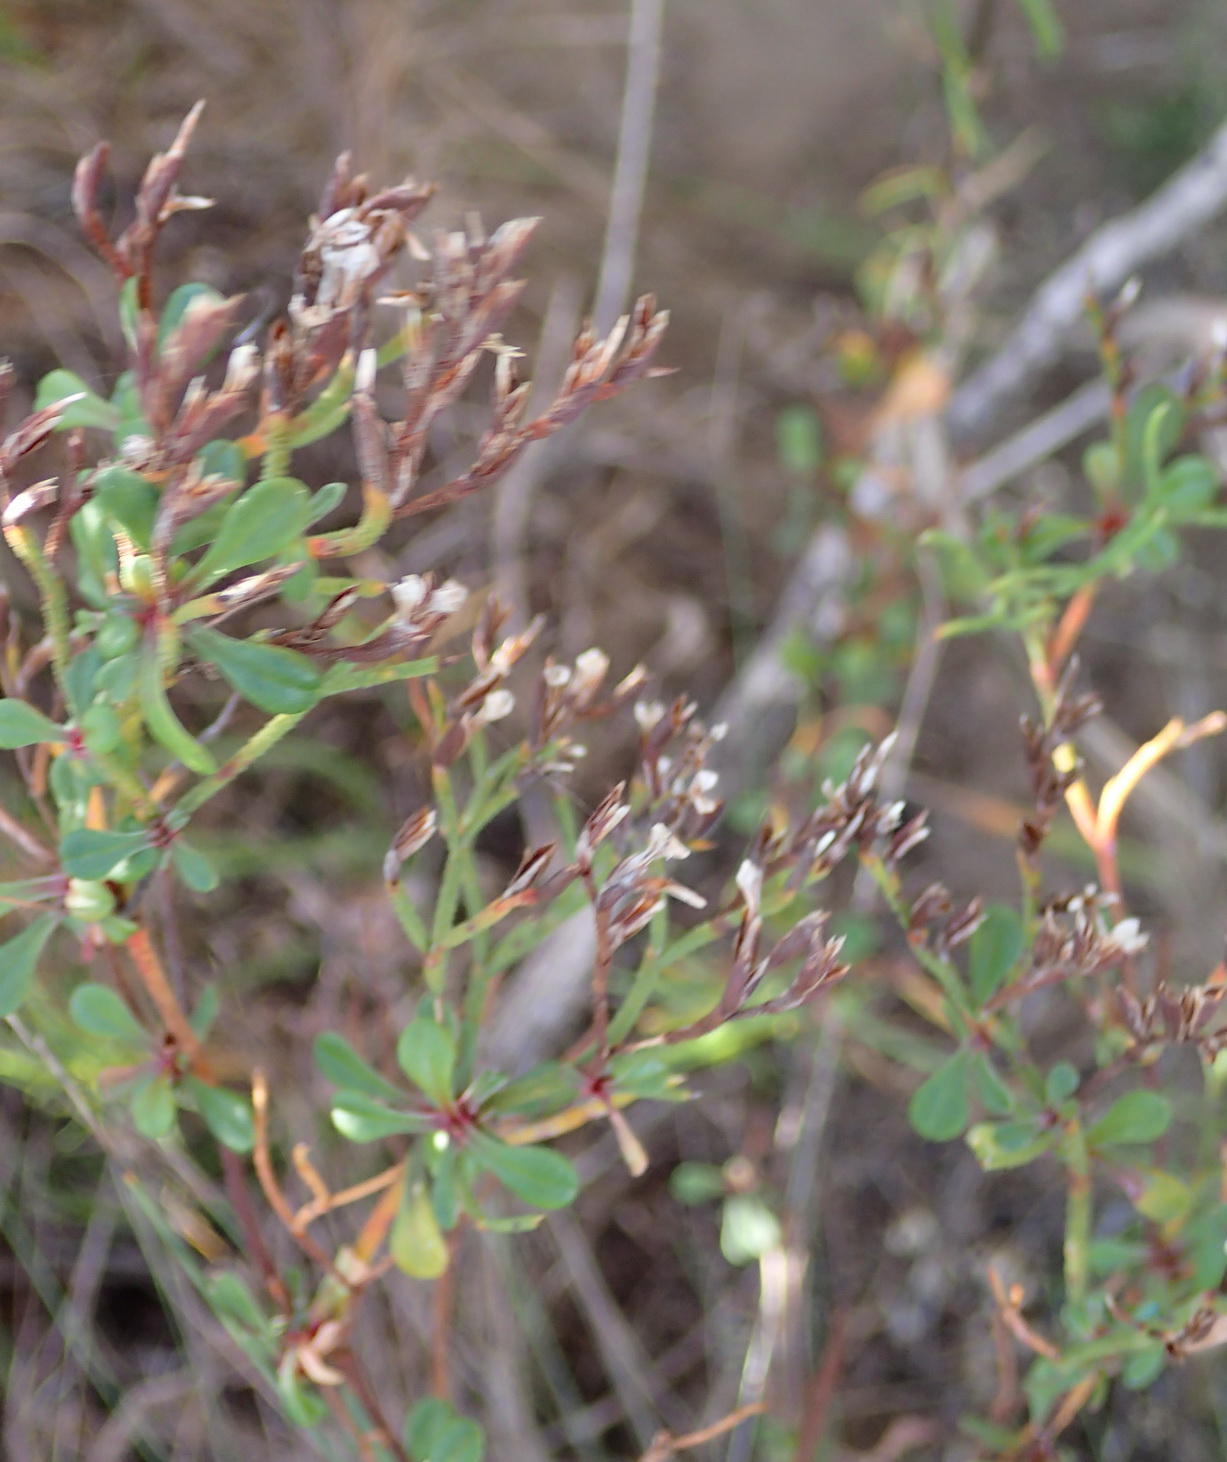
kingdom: Plantae
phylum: Tracheophyta
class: Magnoliopsida
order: Caryophyllales
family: Plumbaginaceae
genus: Limonium
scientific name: Limonium scabrum
